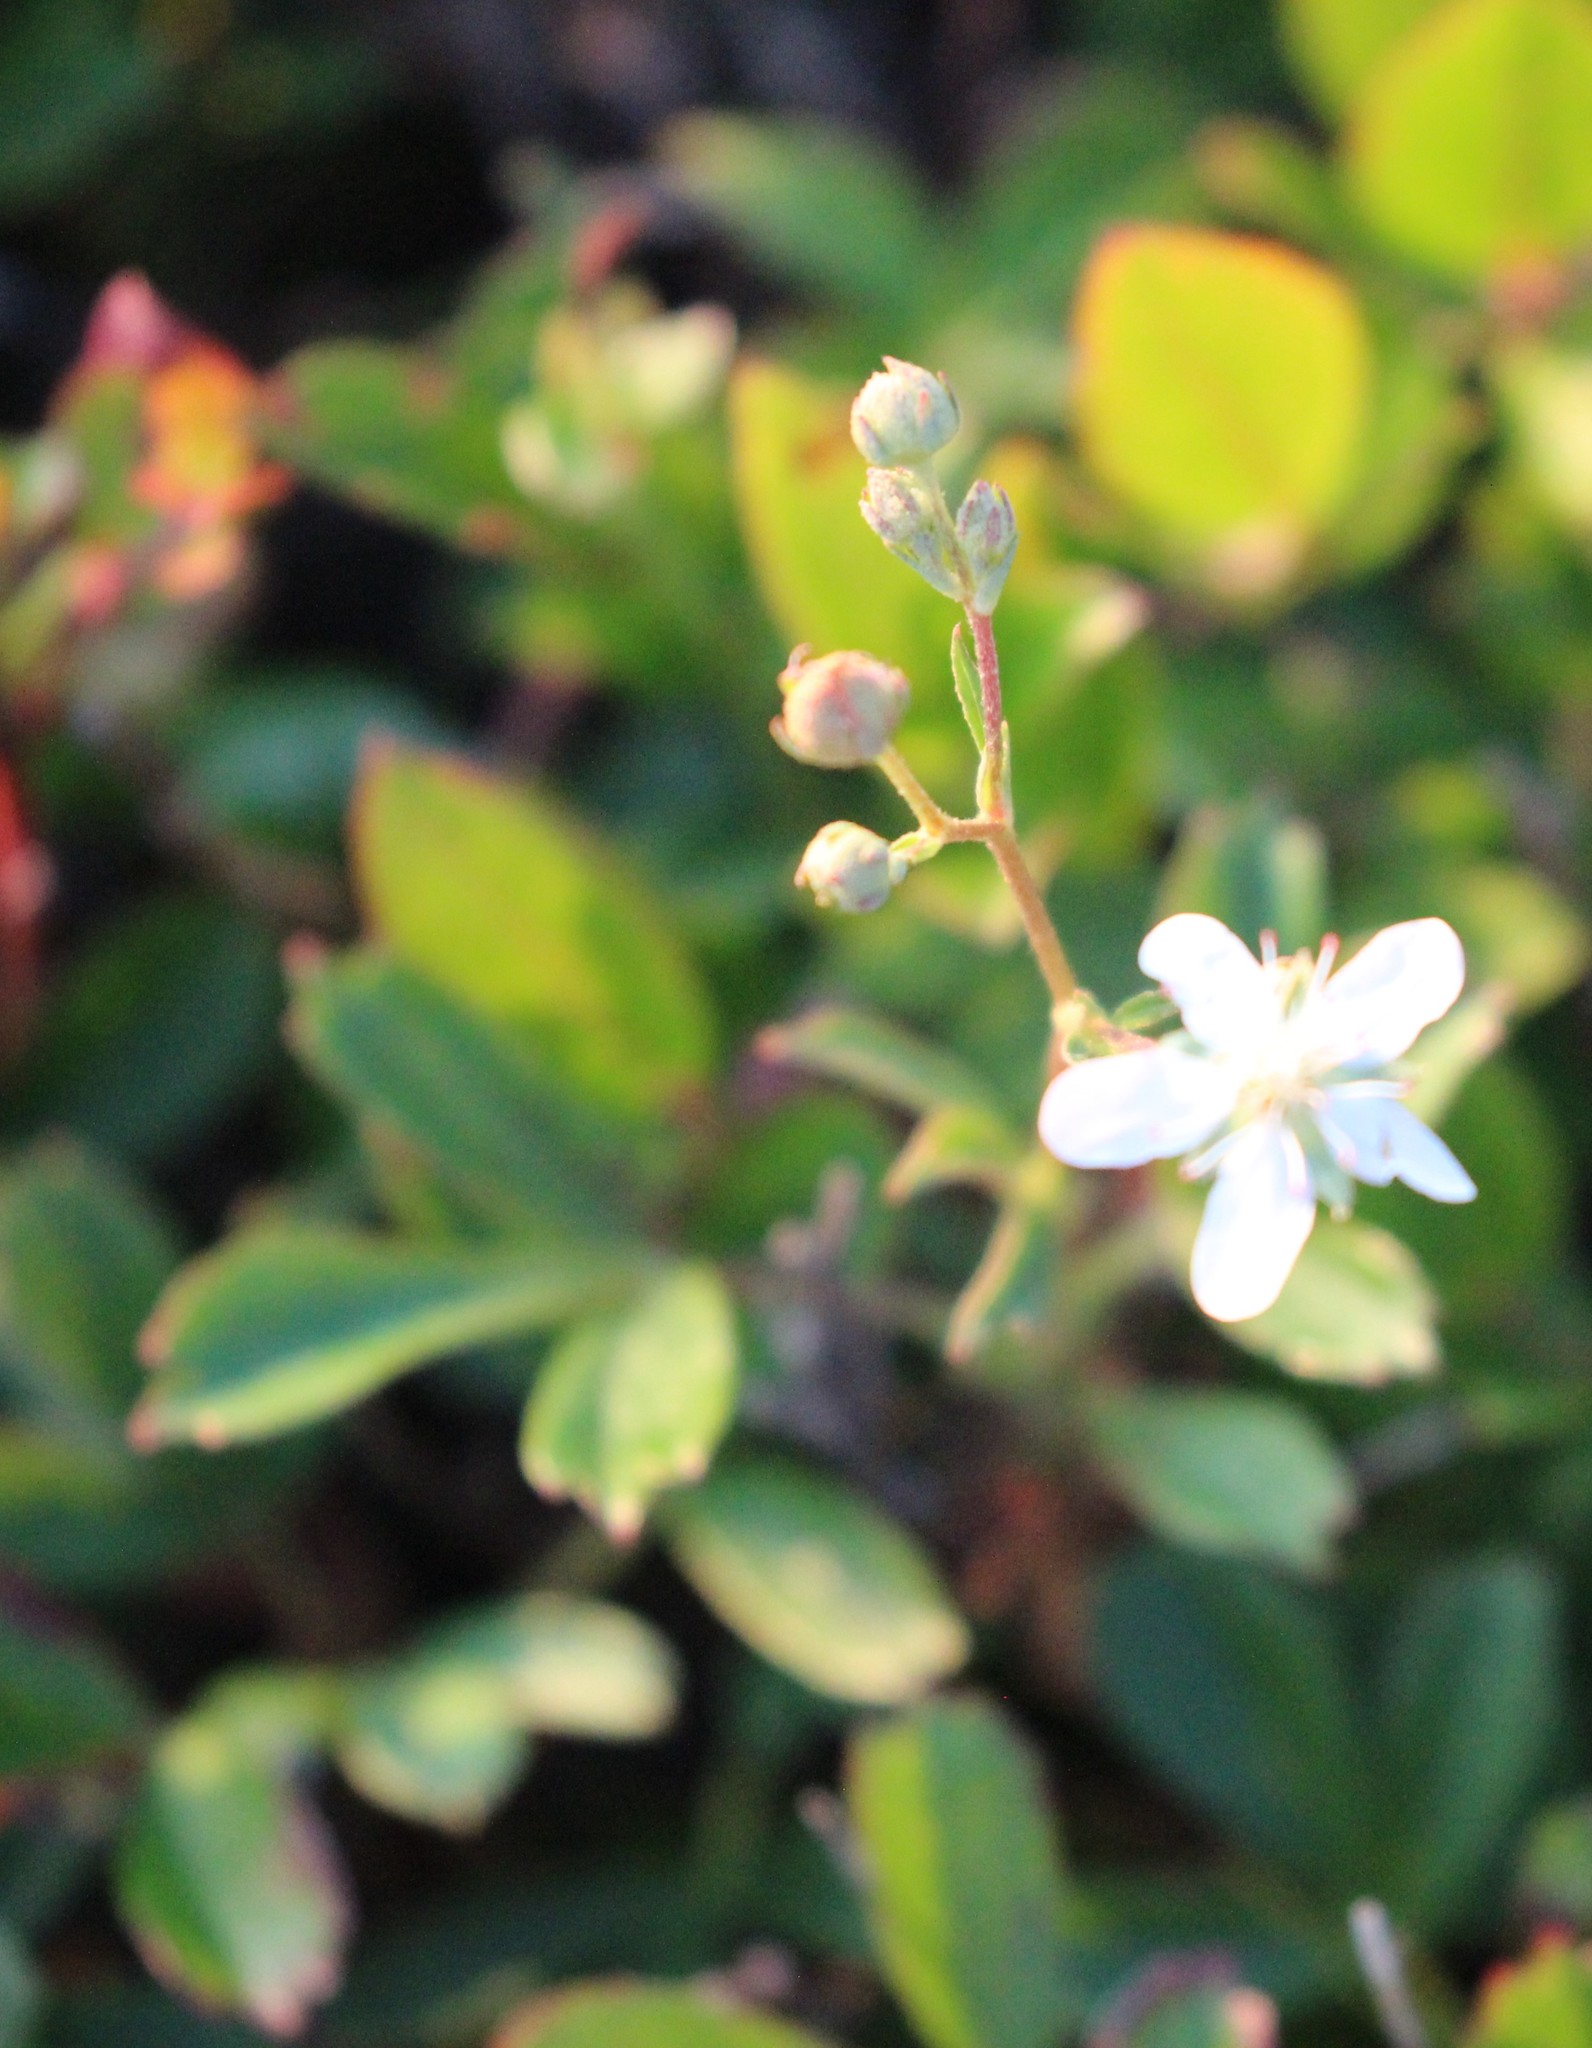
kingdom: Plantae
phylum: Tracheophyta
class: Magnoliopsida
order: Rosales
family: Rosaceae
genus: Sibbaldia
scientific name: Sibbaldia tridentata
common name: Three-toothed cinquefoil
